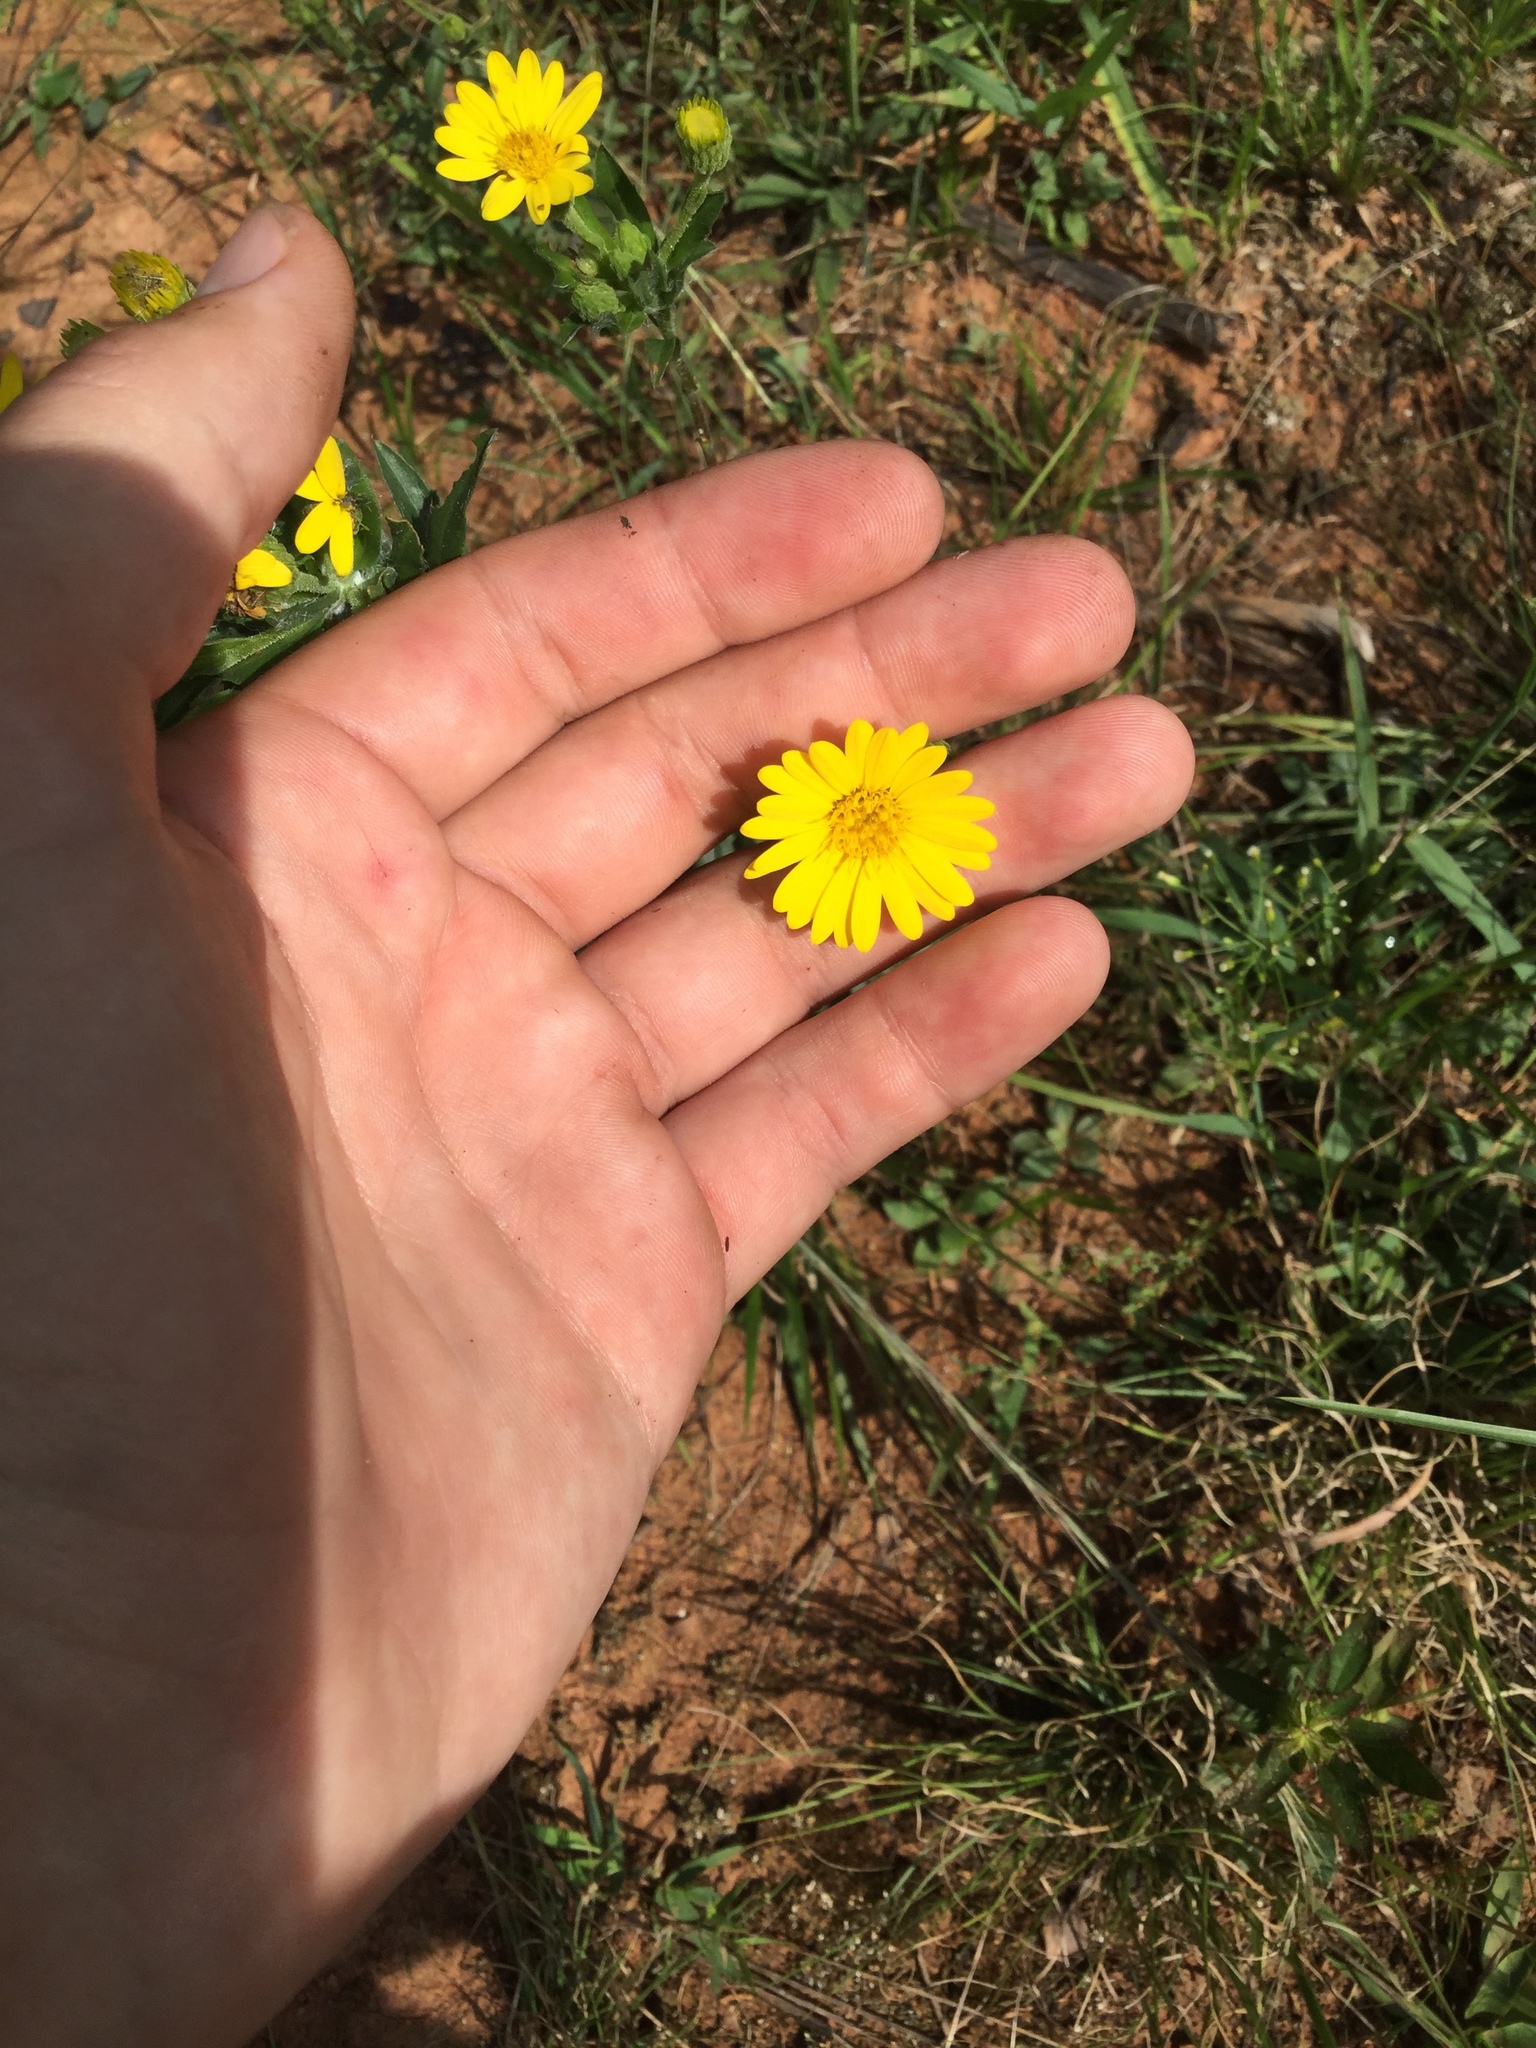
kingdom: Plantae
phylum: Tracheophyta
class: Magnoliopsida
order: Asterales
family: Asteraceae
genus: Chrysopsis
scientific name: Chrysopsis mariana
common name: Maryland golden-aster
